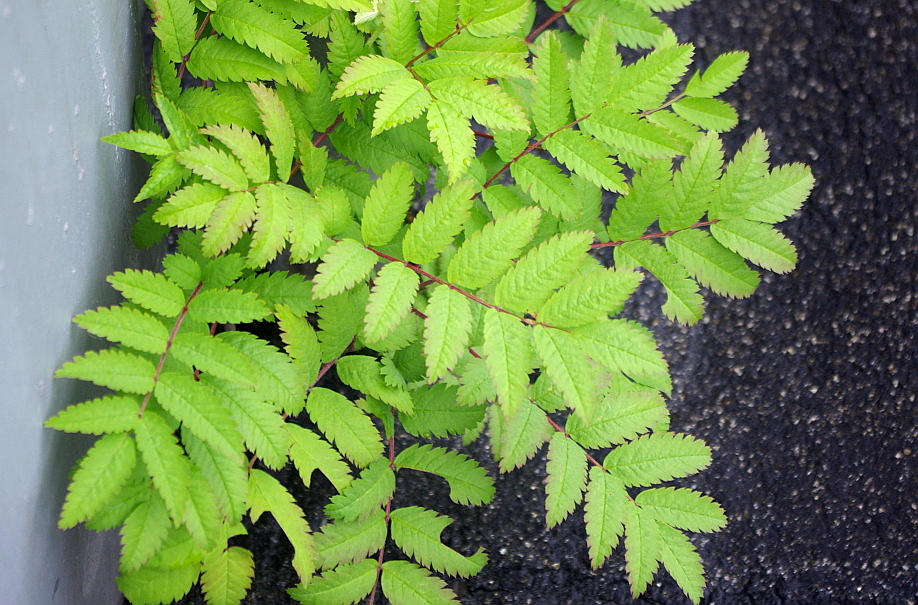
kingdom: Plantae
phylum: Tracheophyta
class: Magnoliopsida
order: Rosales
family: Rosaceae
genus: Sorbus
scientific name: Sorbus aucuparia
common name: Rowan
